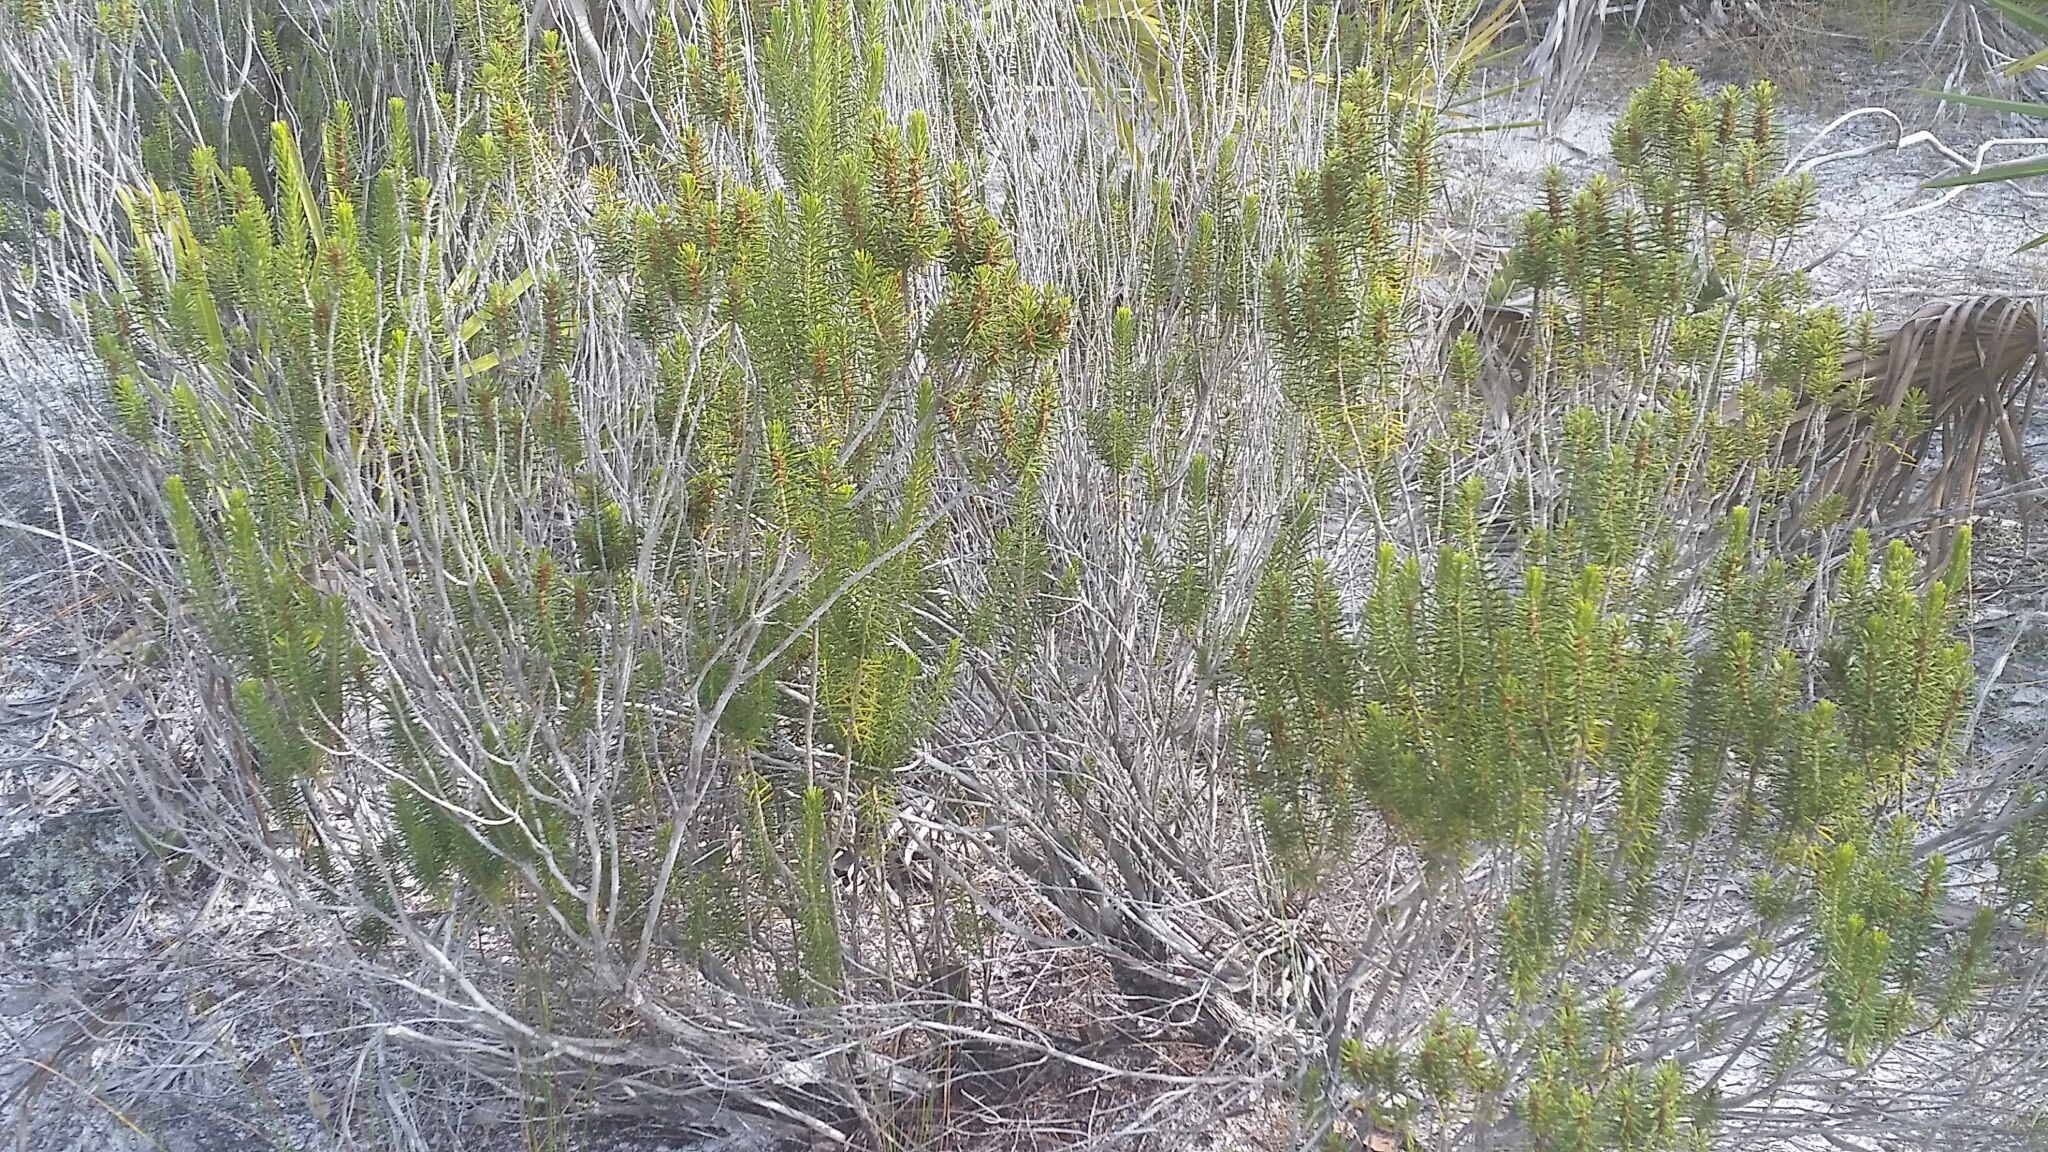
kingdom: Plantae
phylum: Tracheophyta
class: Magnoliopsida
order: Ericales
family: Ericaceae
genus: Ceratiola
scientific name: Ceratiola ericoides
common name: Sandhill-rosemary
